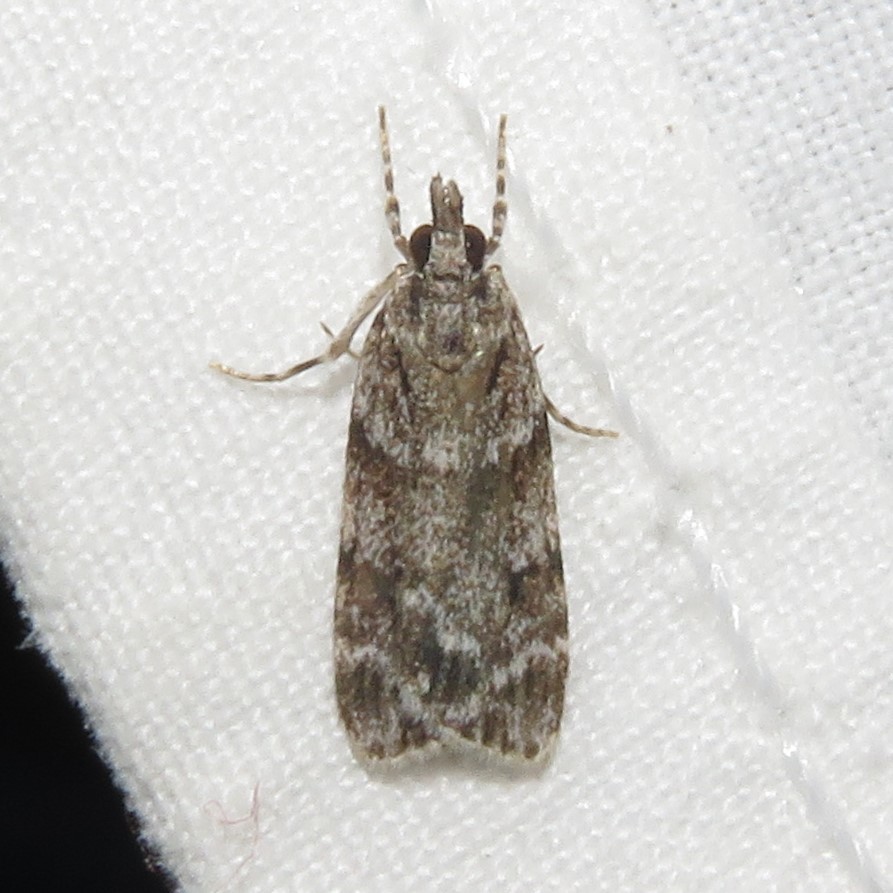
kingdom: Animalia
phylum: Arthropoda
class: Insecta
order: Lepidoptera
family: Crambidae
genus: Scoparia
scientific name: Scoparia biplagialis
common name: Double-striped scoparia moth
